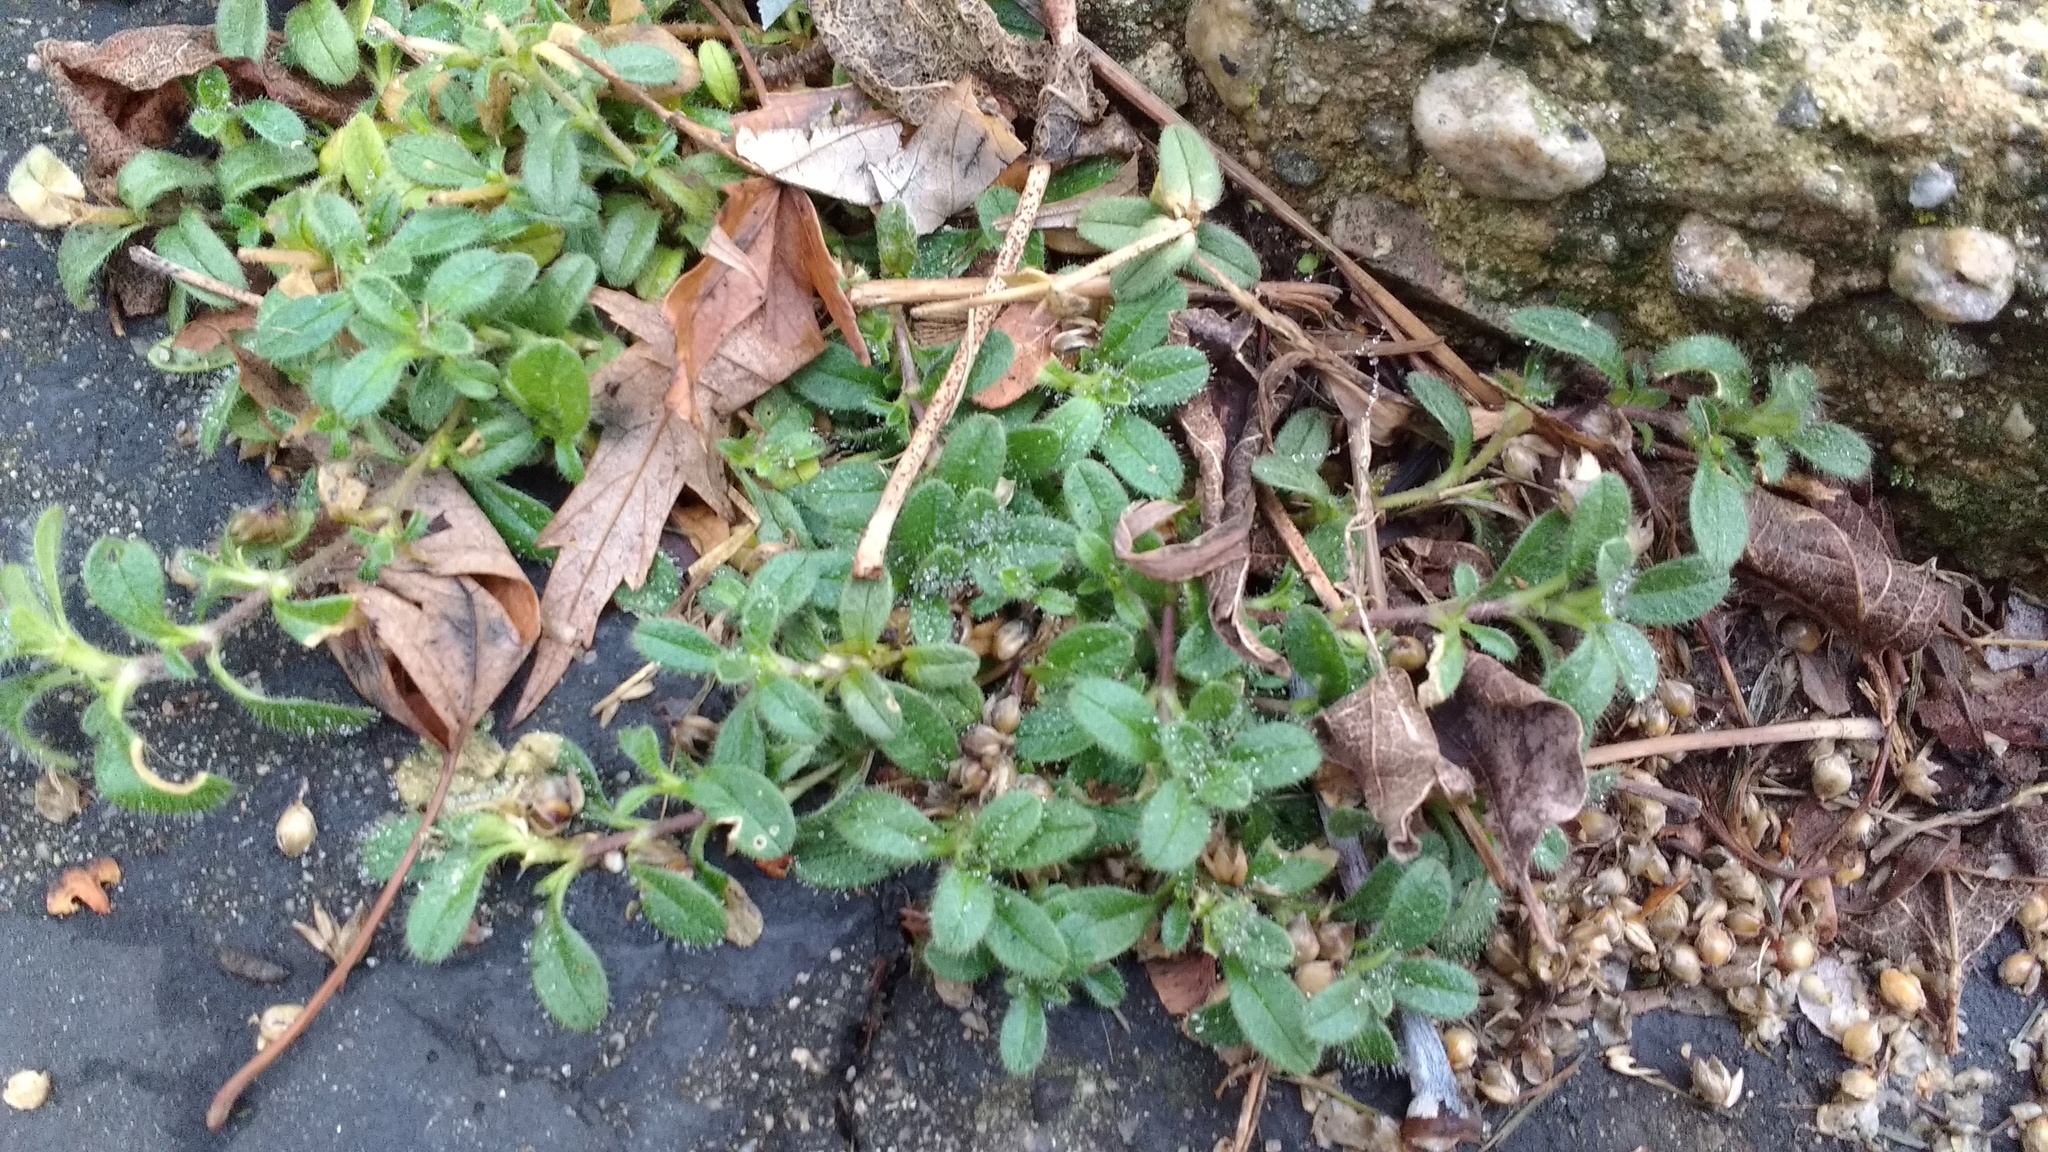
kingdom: Plantae
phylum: Tracheophyta
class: Magnoliopsida
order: Caryophyllales
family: Caryophyllaceae
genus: Cerastium
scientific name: Cerastium fontanum
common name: Common mouse-ear
